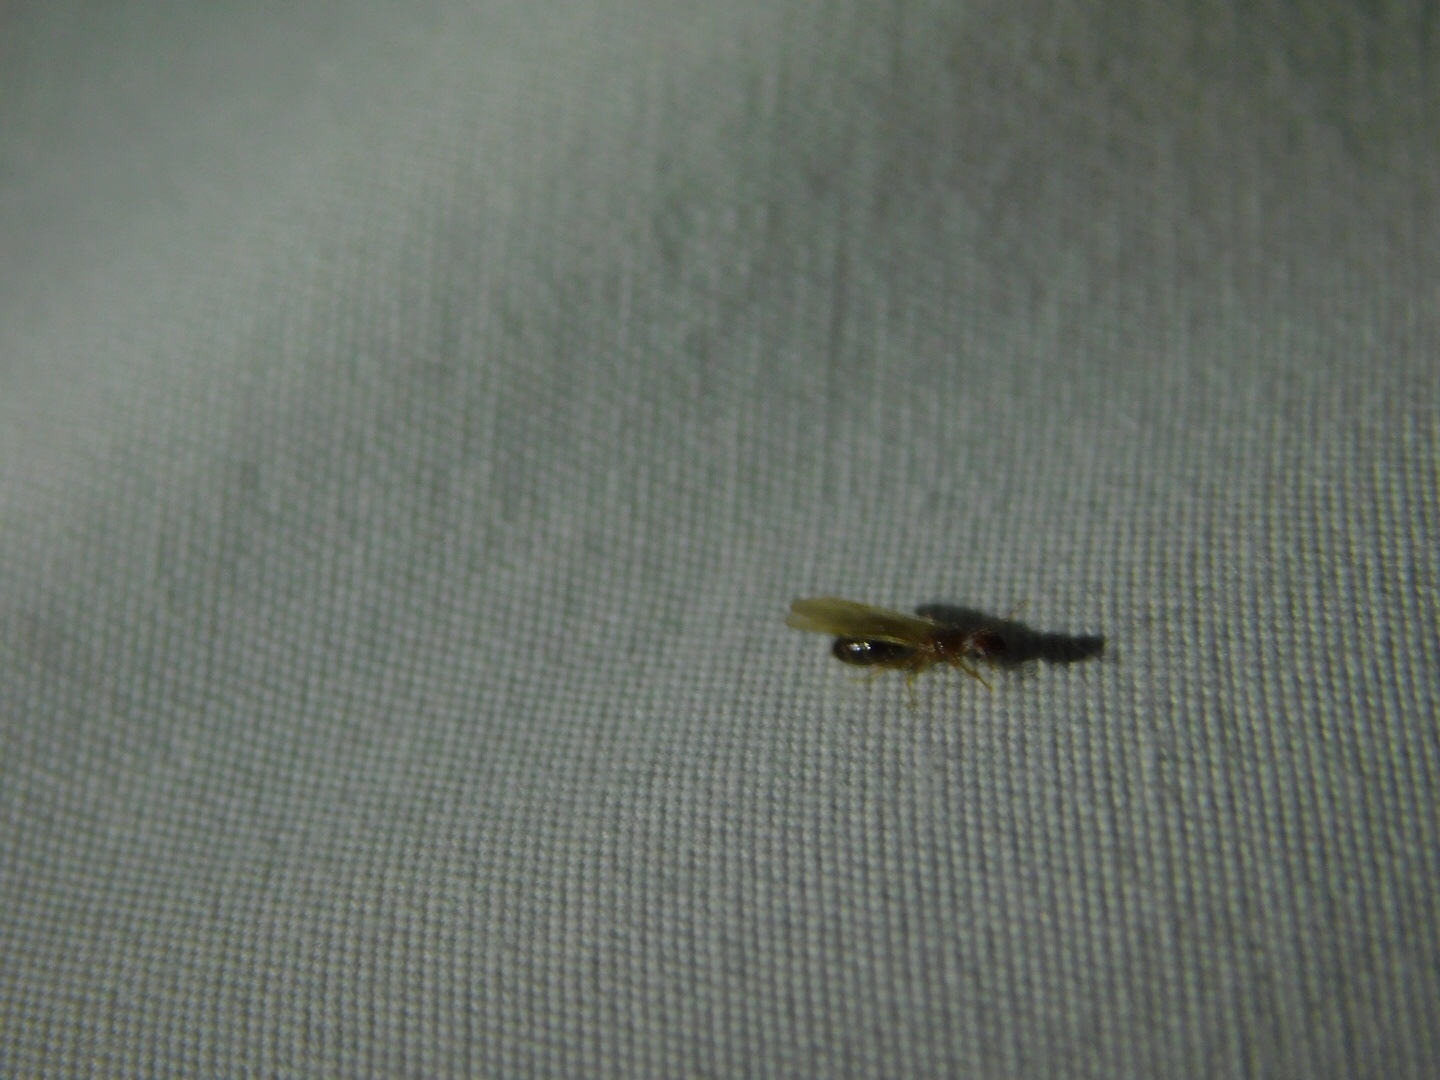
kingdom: Animalia
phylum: Arthropoda
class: Insecta
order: Hymenoptera
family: Formicidae
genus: Pheidole
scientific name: Pheidole parva
